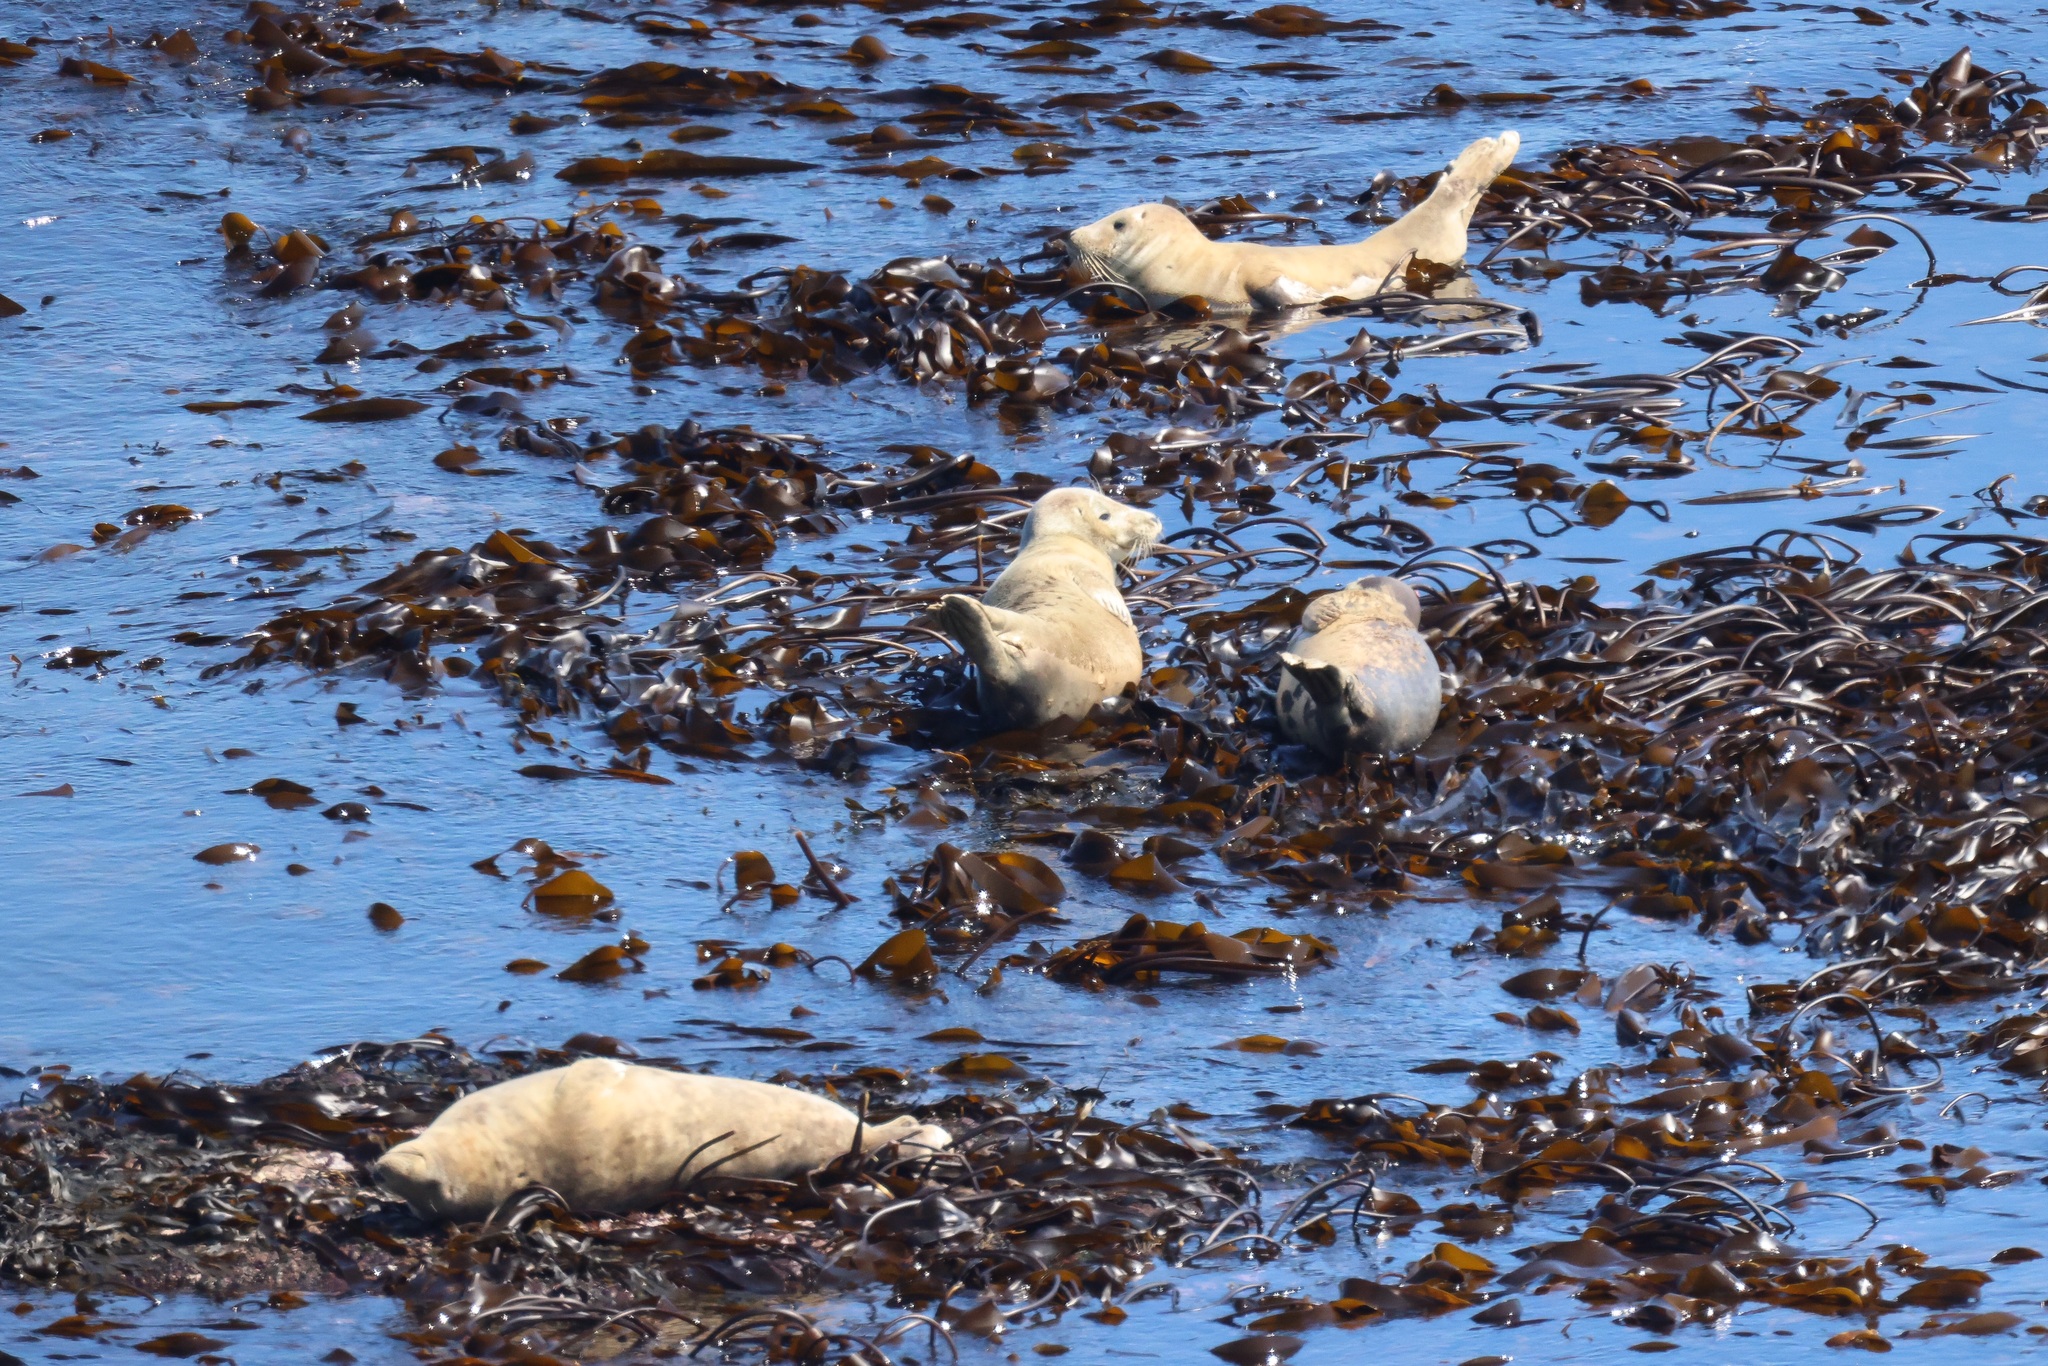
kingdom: Animalia
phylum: Chordata
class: Mammalia
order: Carnivora
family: Phocidae
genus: Halichoerus
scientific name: Halichoerus grypus
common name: Grey seal
